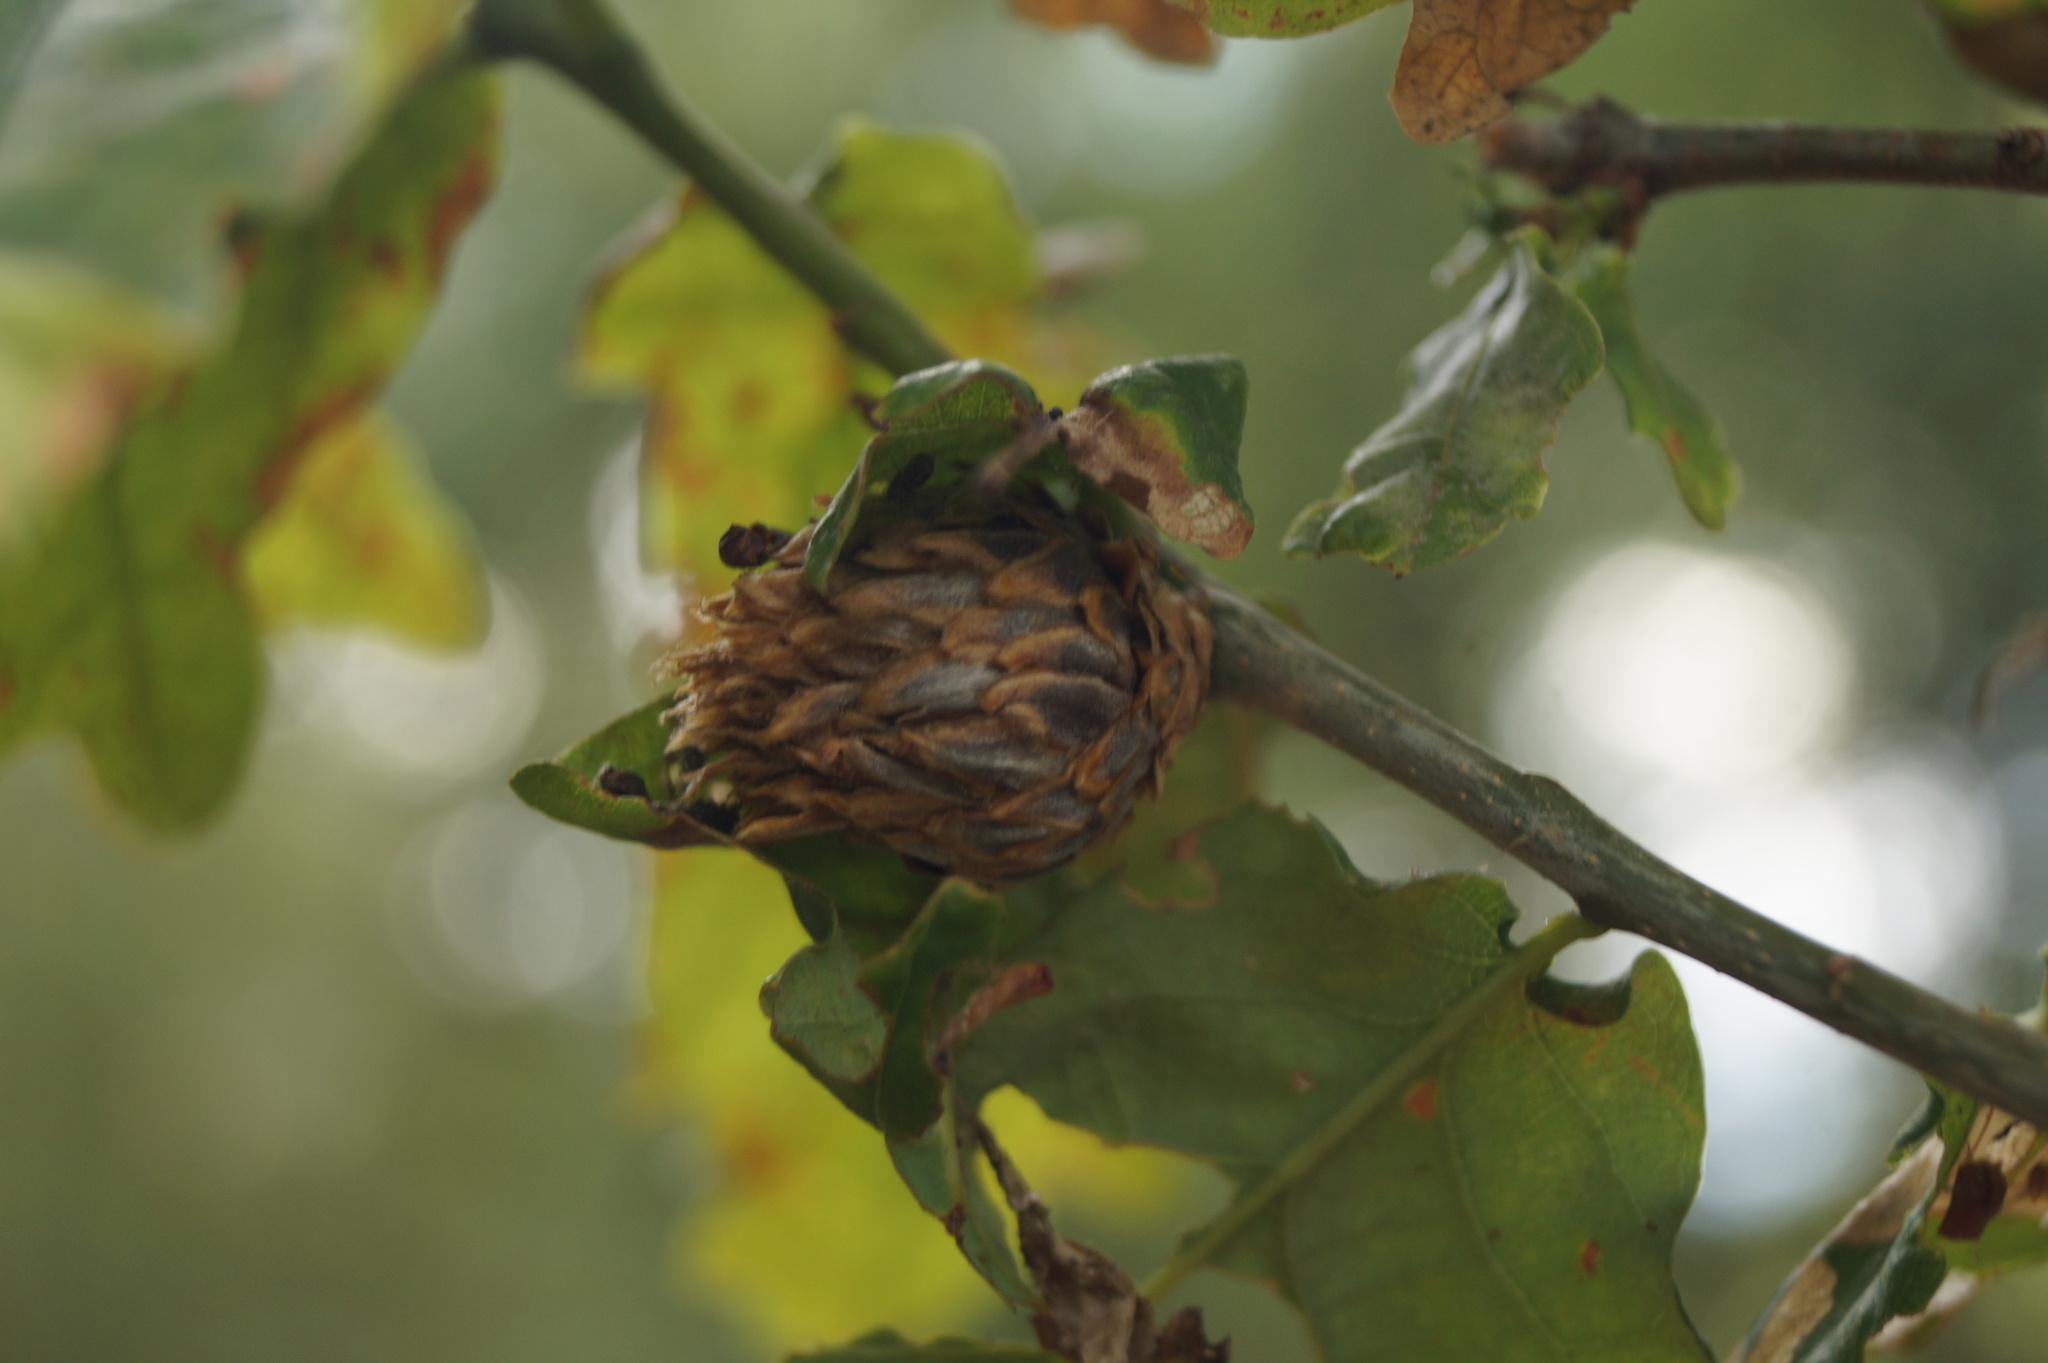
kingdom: Animalia
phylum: Arthropoda
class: Insecta
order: Hymenoptera
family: Cynipidae
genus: Andricus
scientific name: Andricus foecundatrix
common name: Artichoke gall
